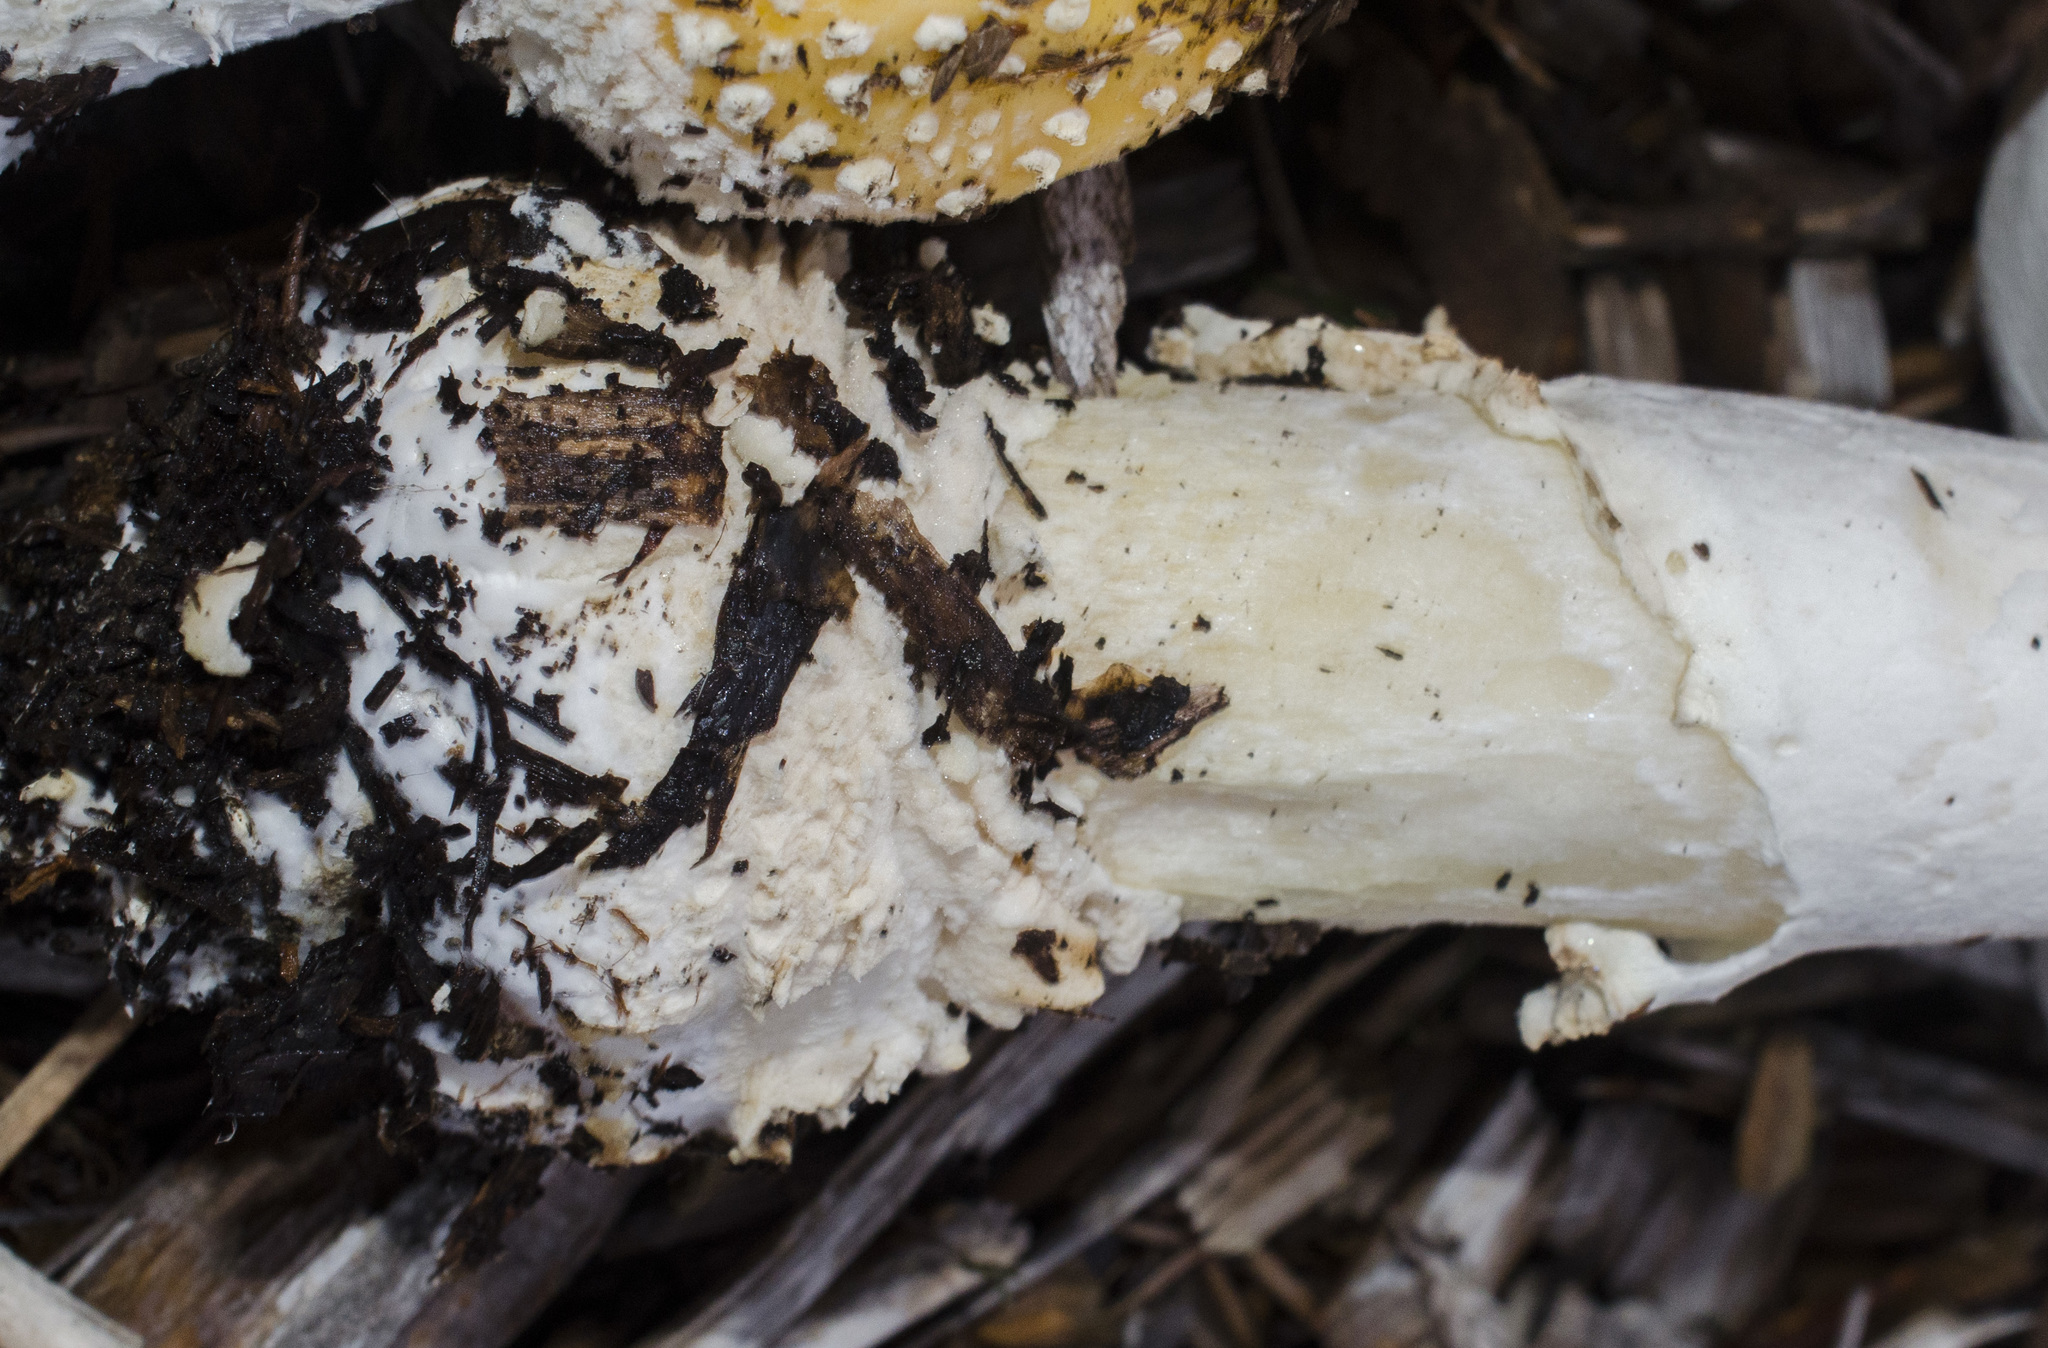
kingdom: Fungi
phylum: Basidiomycota
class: Agaricomycetes
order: Agaricales
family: Amanitaceae
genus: Amanita
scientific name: Amanita muscaria
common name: Fly agaric
